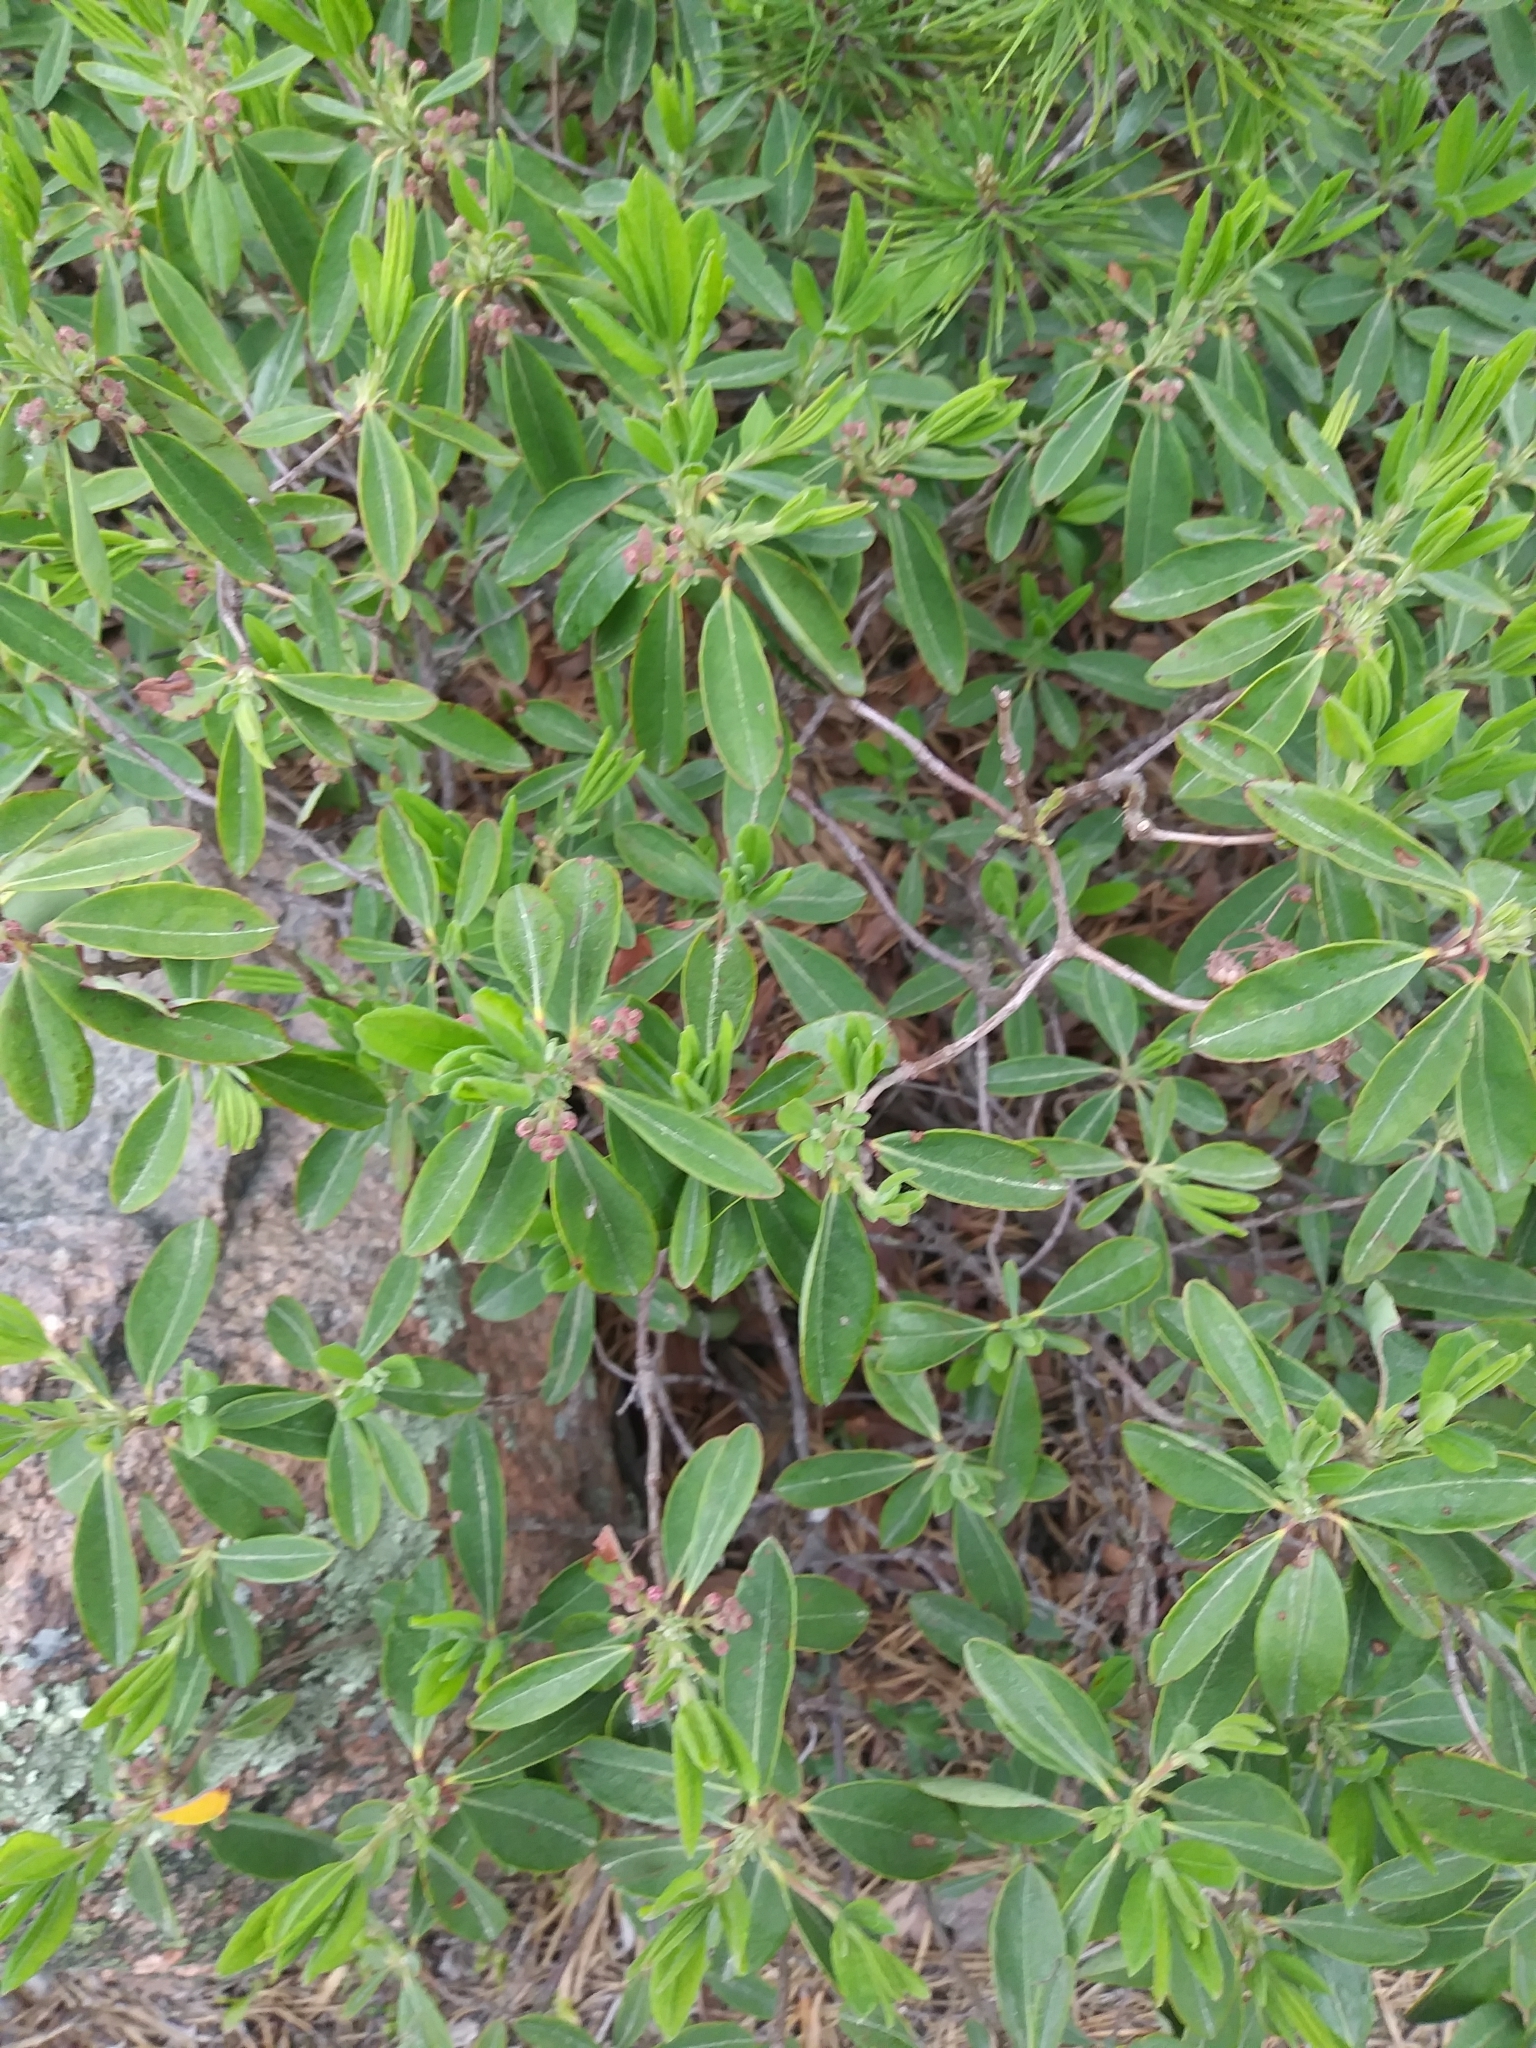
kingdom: Plantae
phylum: Tracheophyta
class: Magnoliopsida
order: Ericales
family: Ericaceae
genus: Kalmia
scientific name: Kalmia angustifolia
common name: Sheep-laurel
